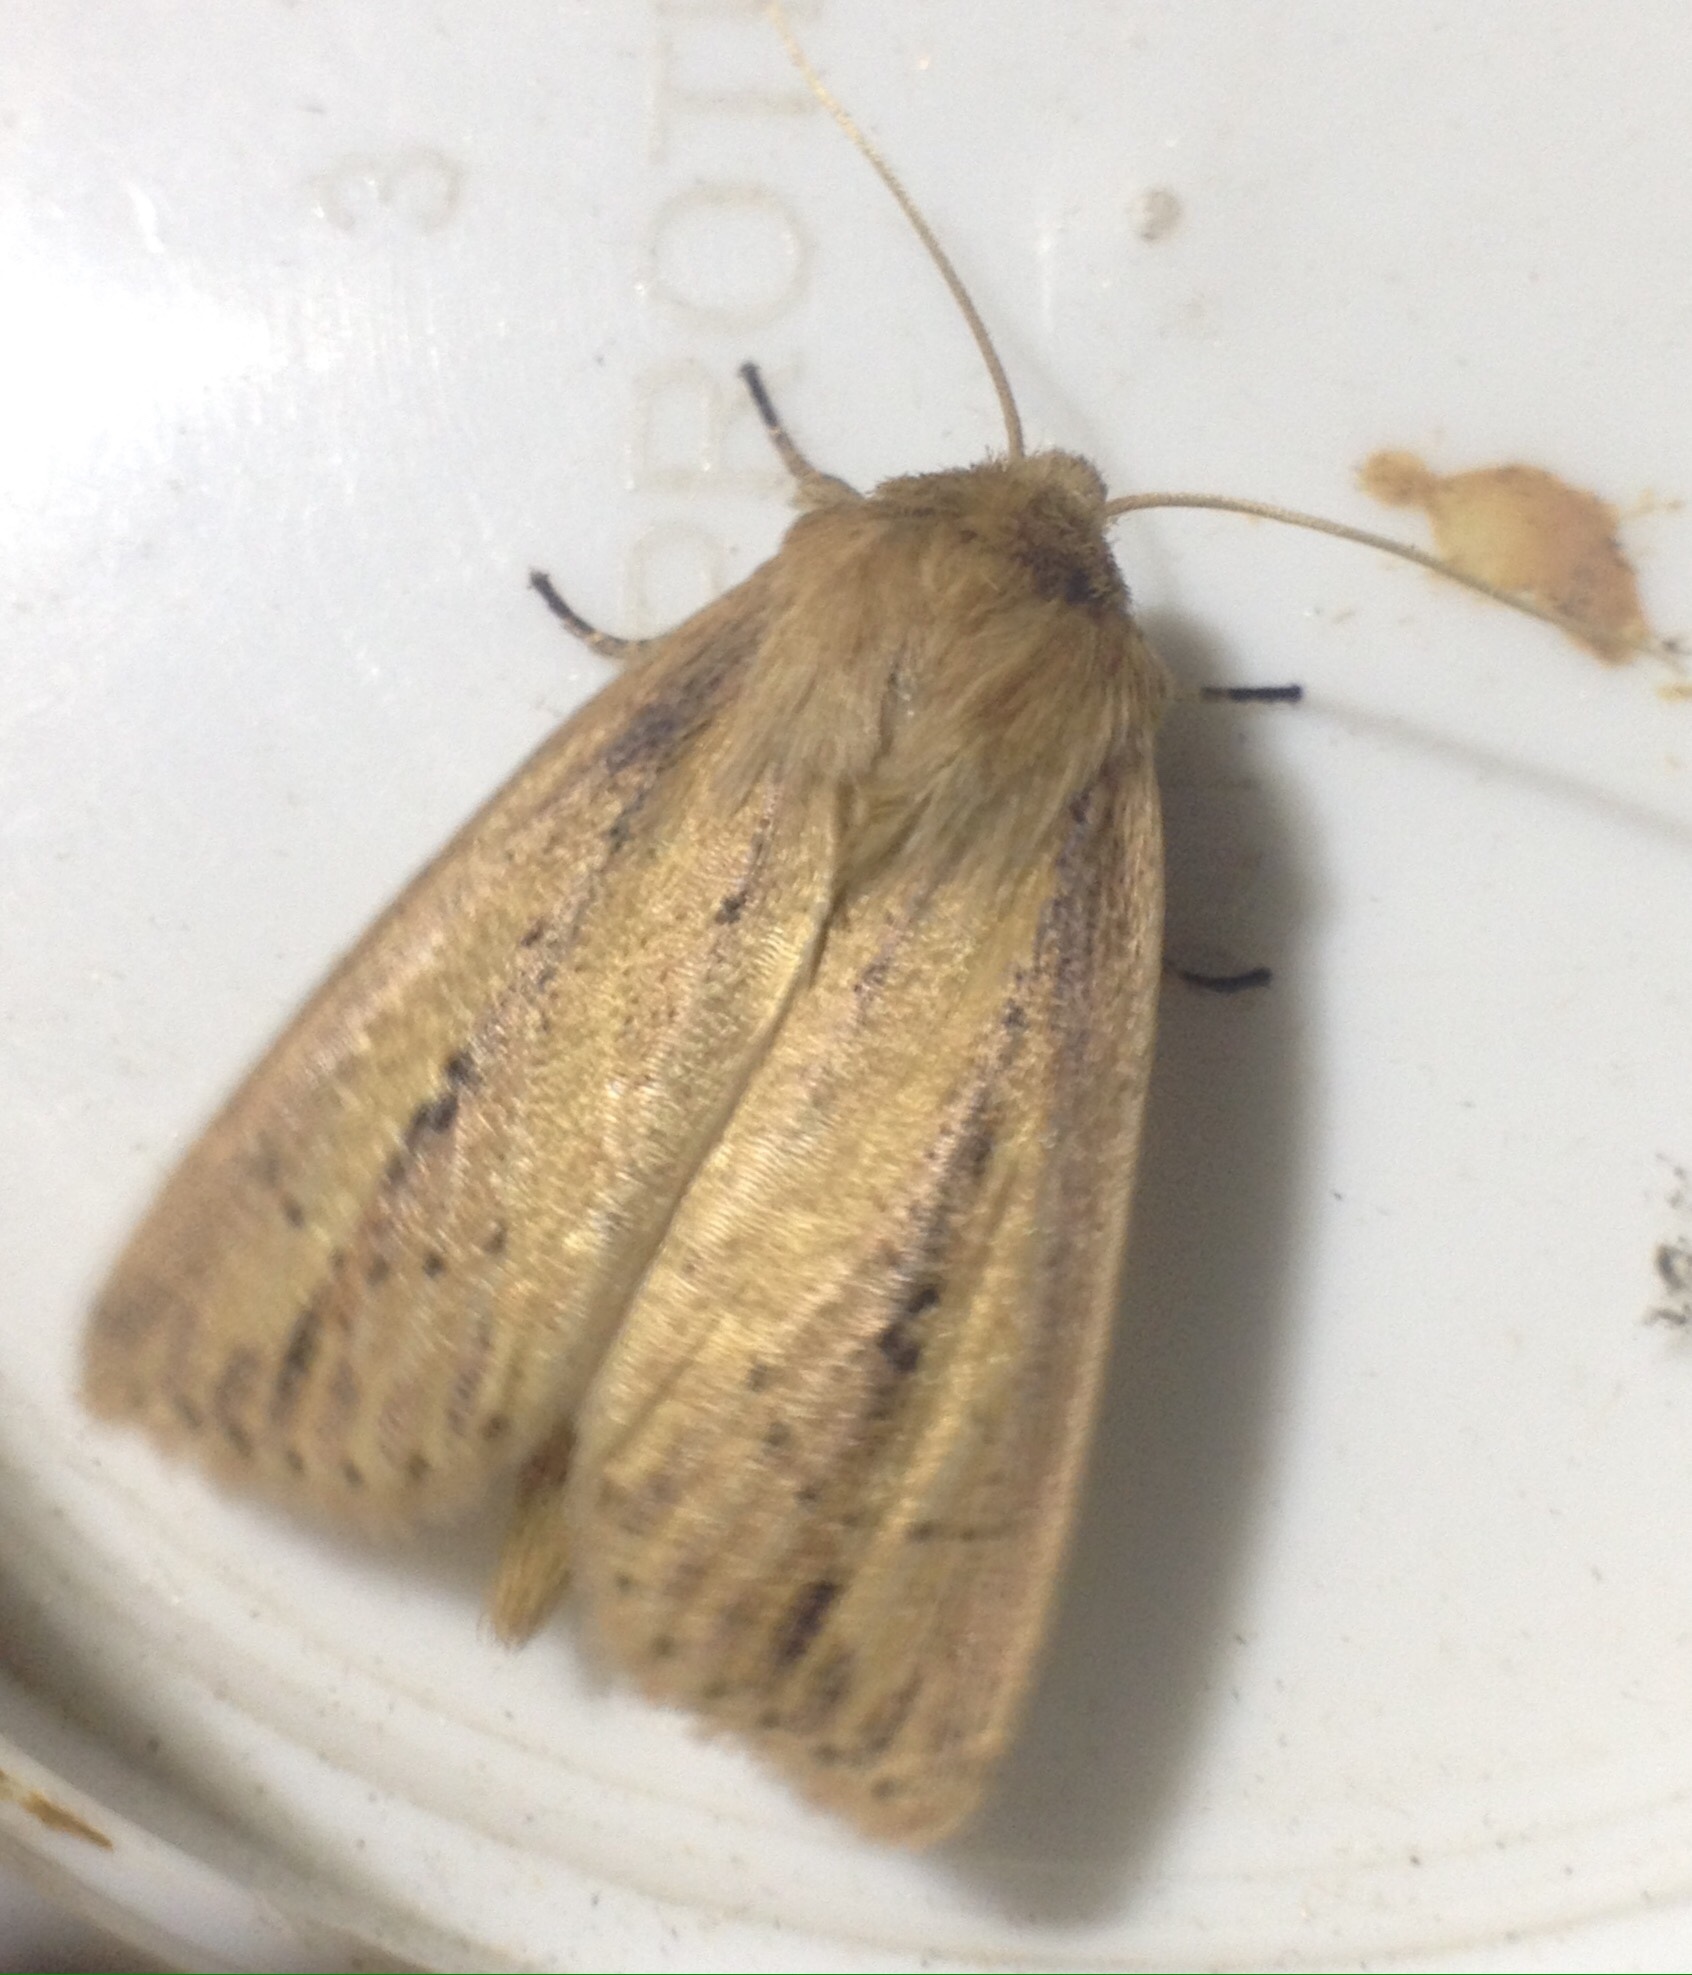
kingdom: Animalia
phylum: Arthropoda
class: Insecta
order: Lepidoptera
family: Noctuidae
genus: Globia
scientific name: Globia sparganii
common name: Webb's wainscot
